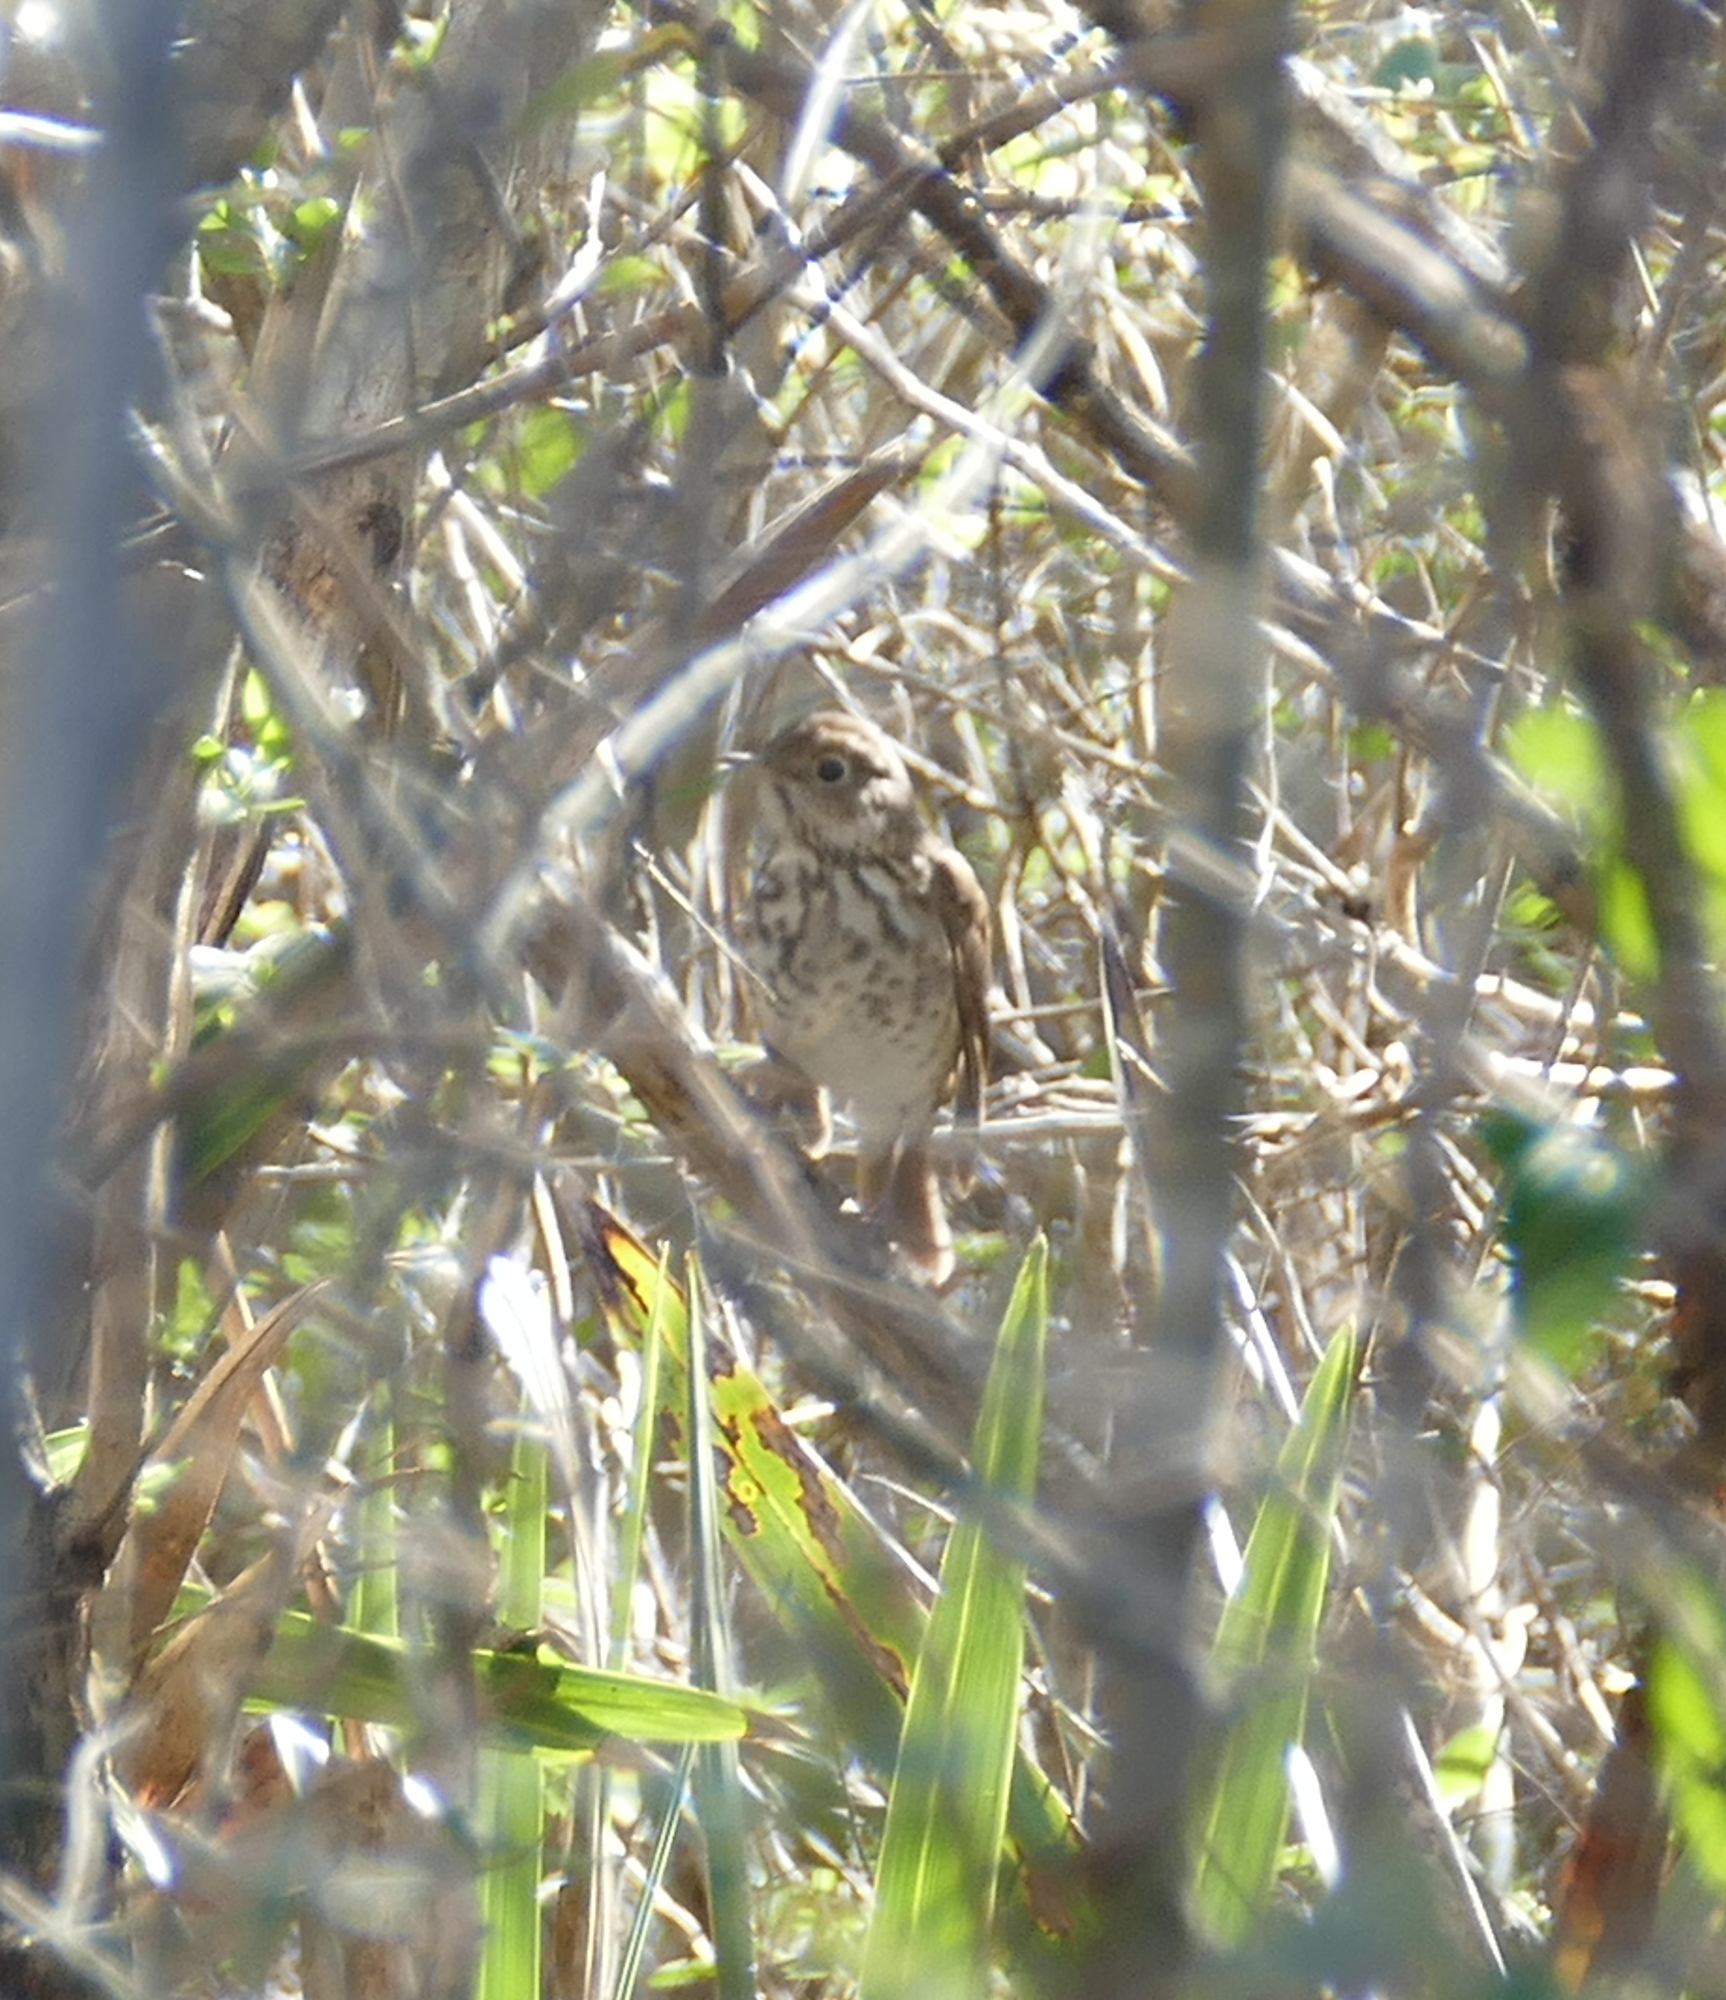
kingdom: Animalia
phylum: Chordata
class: Aves
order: Passeriformes
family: Turdidae
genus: Catharus
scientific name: Catharus guttatus
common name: Hermit thrush
